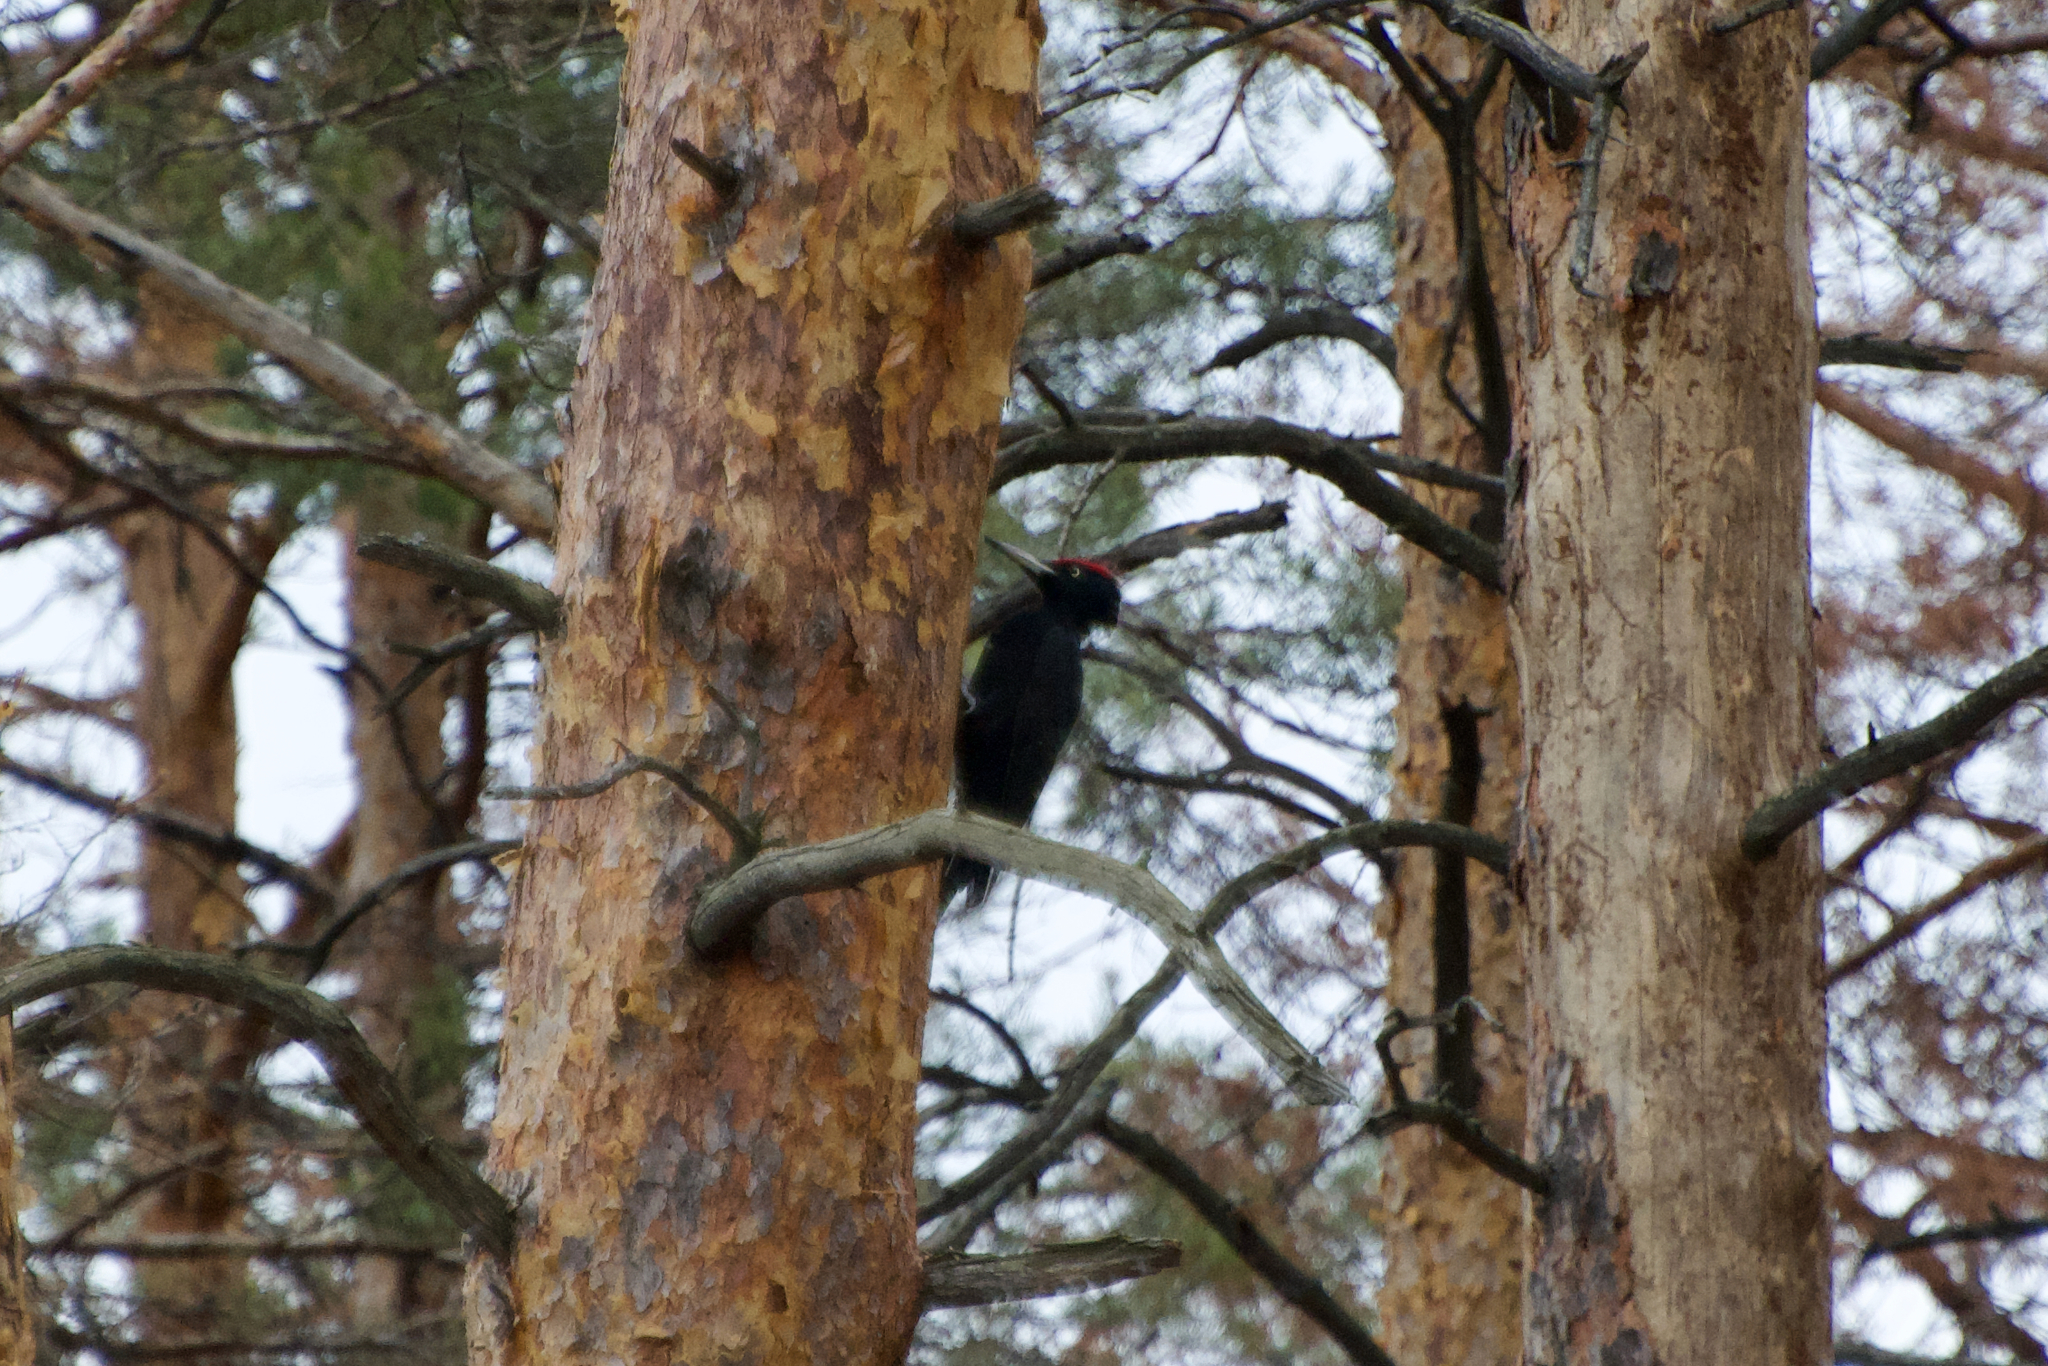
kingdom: Animalia
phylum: Chordata
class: Aves
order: Piciformes
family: Picidae
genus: Dryocopus
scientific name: Dryocopus martius
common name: Black woodpecker
